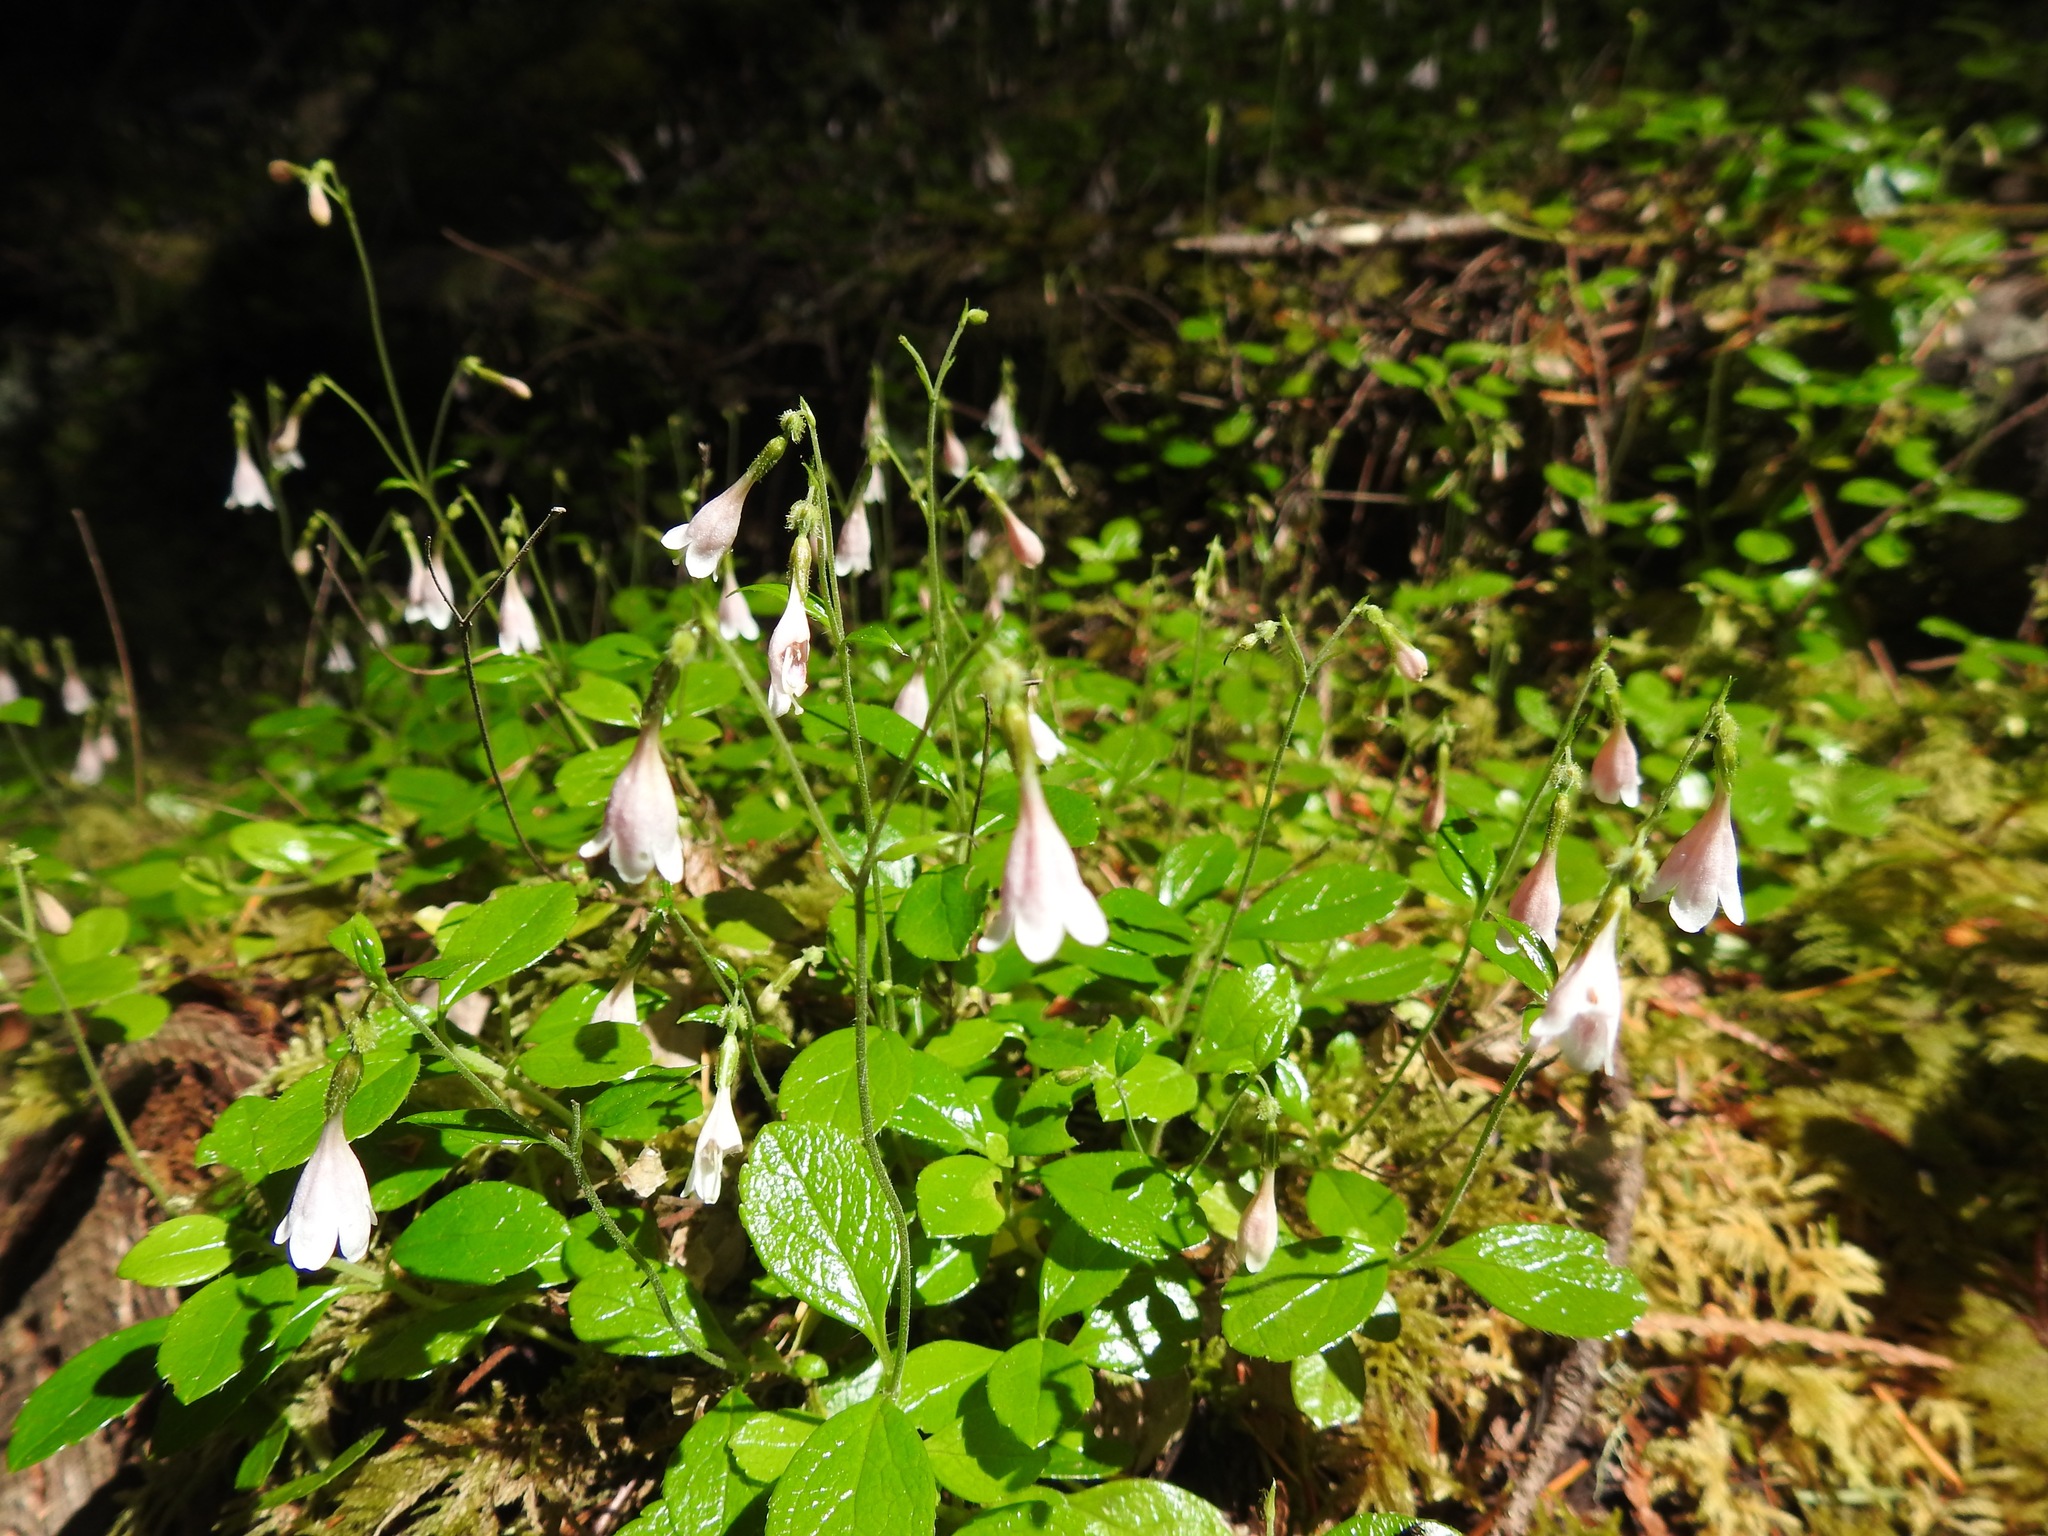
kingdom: Plantae
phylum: Tracheophyta
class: Magnoliopsida
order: Dipsacales
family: Caprifoliaceae
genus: Linnaea
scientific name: Linnaea borealis
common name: Twinflower
